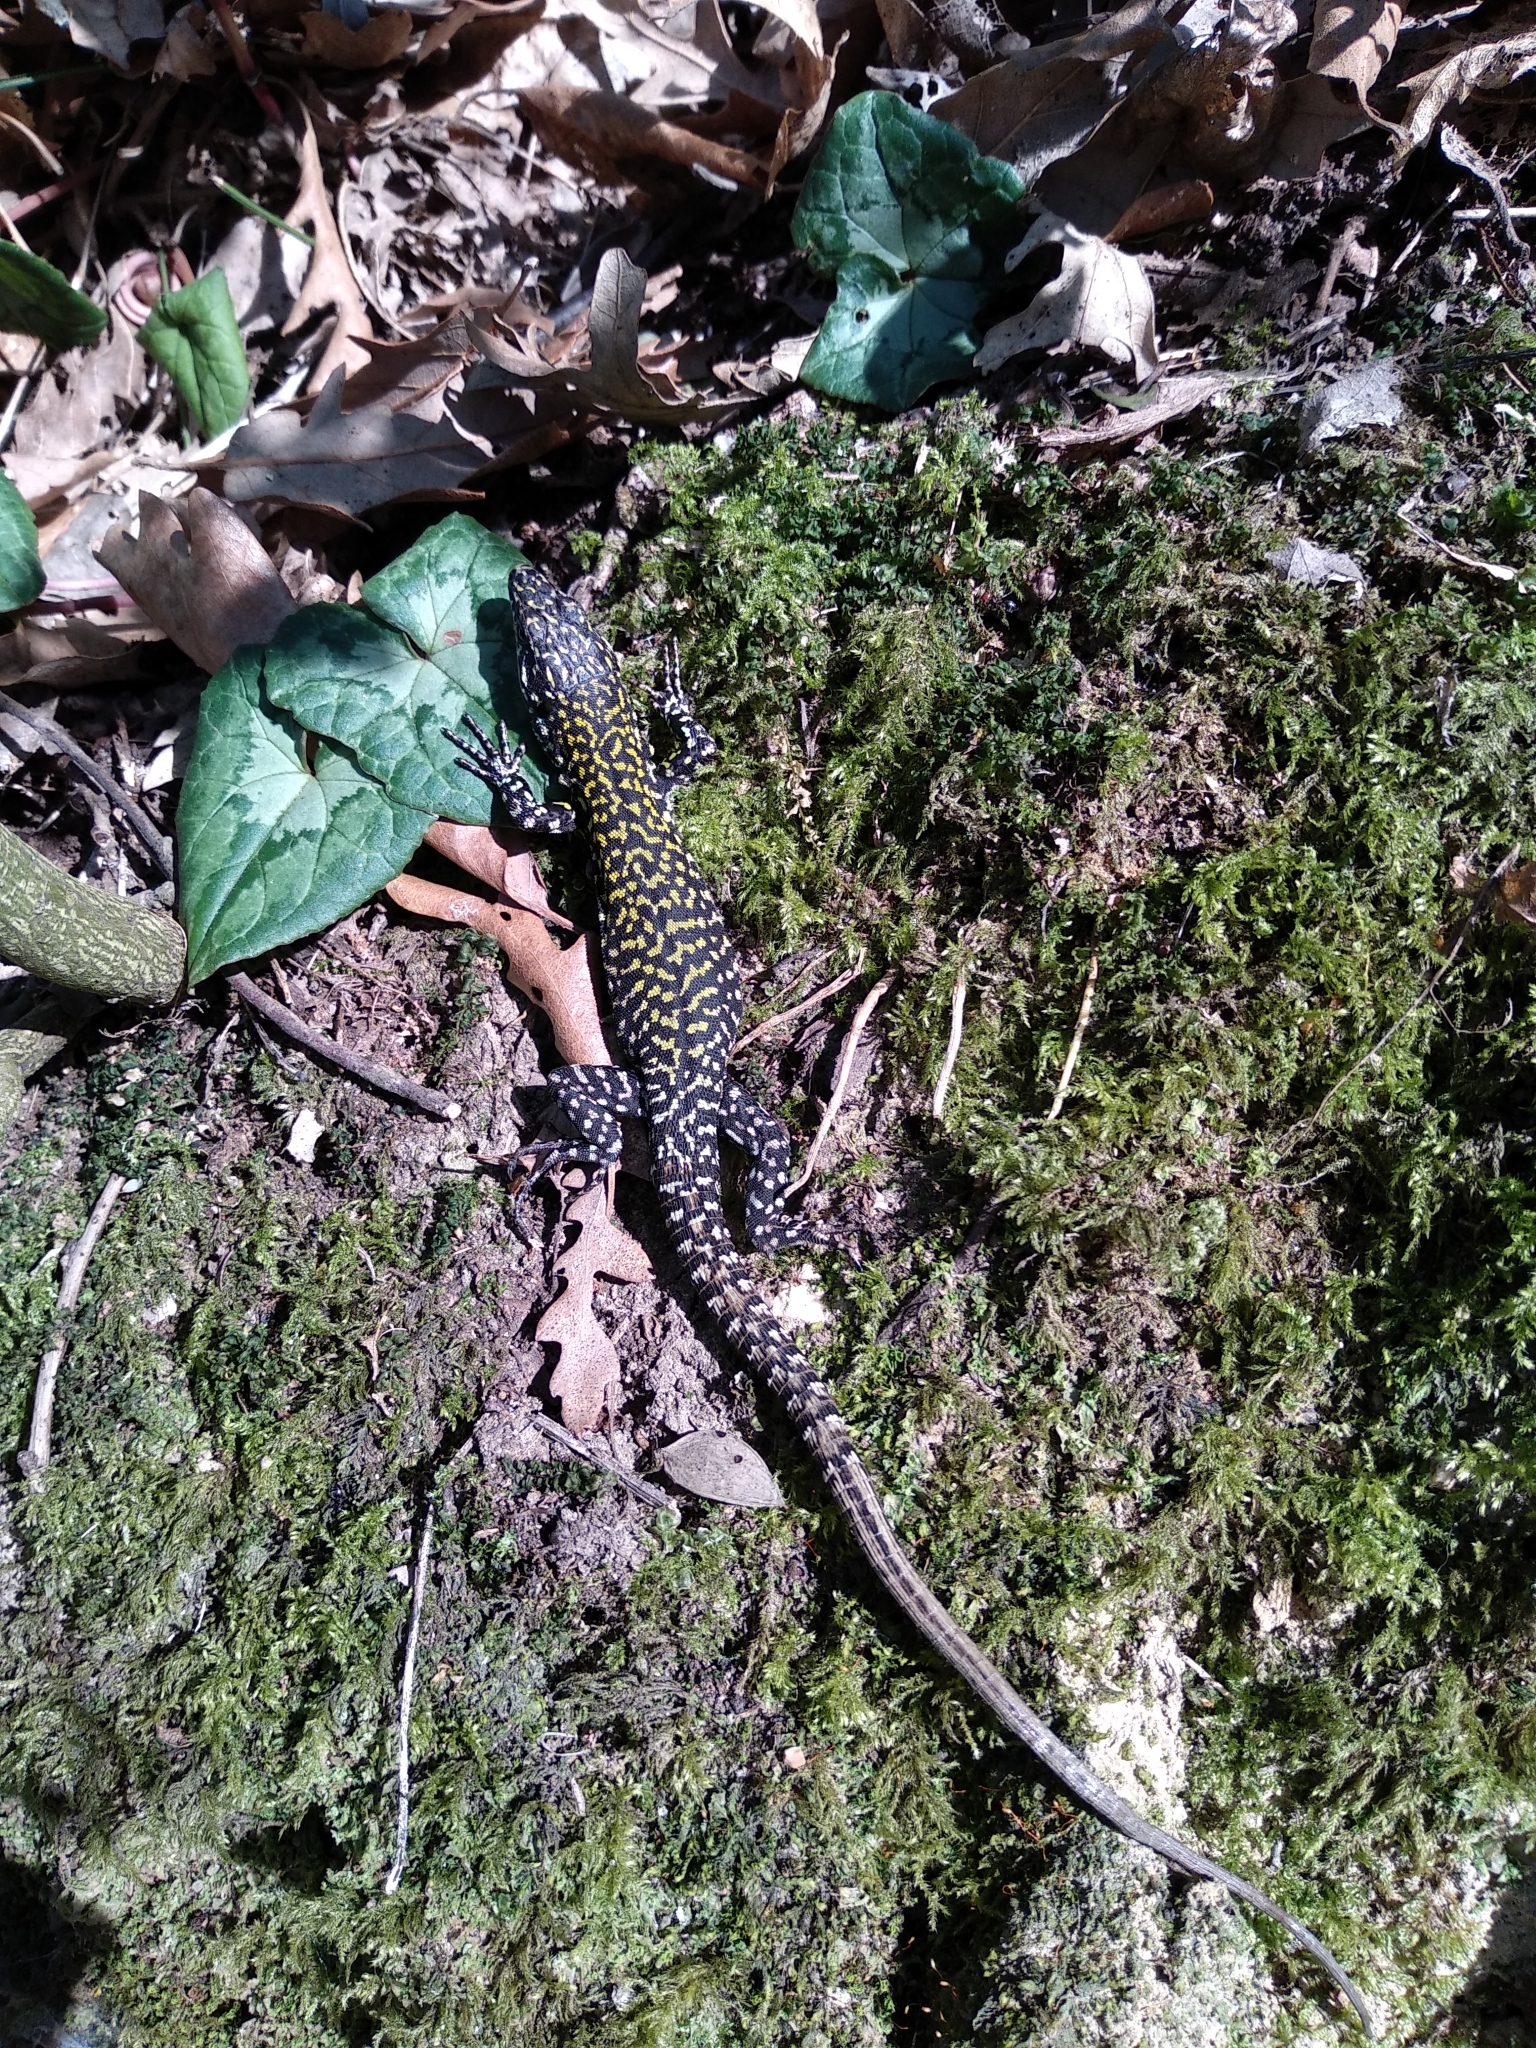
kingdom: Animalia
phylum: Chordata
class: Squamata
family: Lacertidae
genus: Podarcis
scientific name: Podarcis muralis
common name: Common wall lizard
